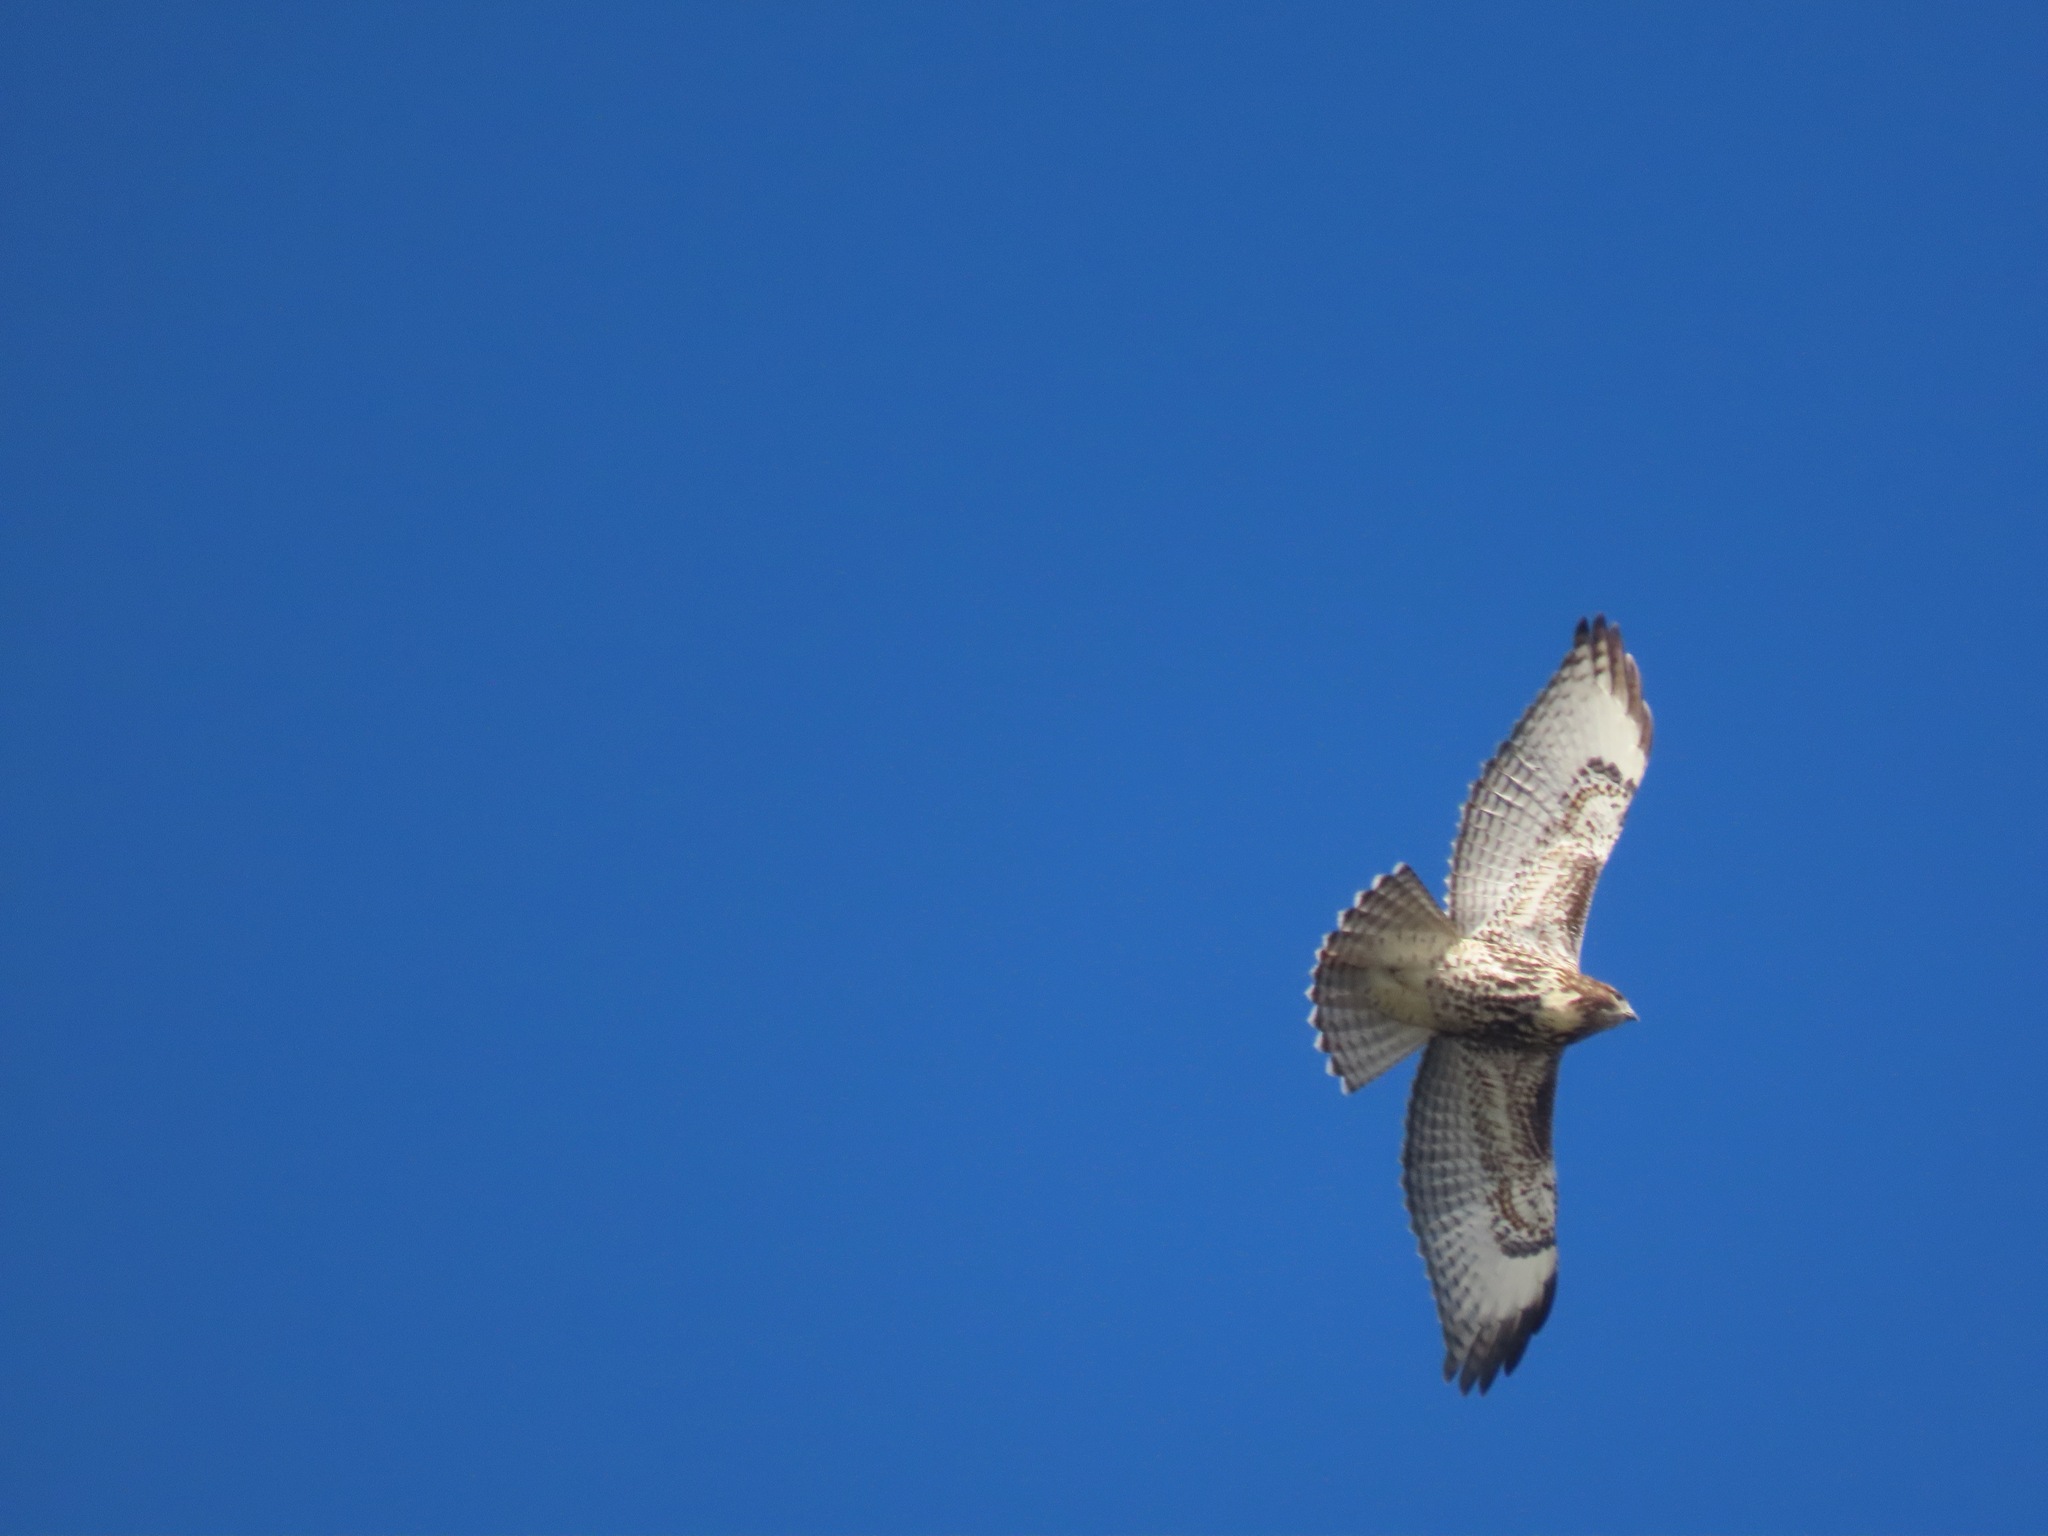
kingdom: Animalia
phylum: Chordata
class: Aves
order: Accipitriformes
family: Accipitridae
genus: Buteo
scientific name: Buteo jamaicensis
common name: Red-tailed hawk
